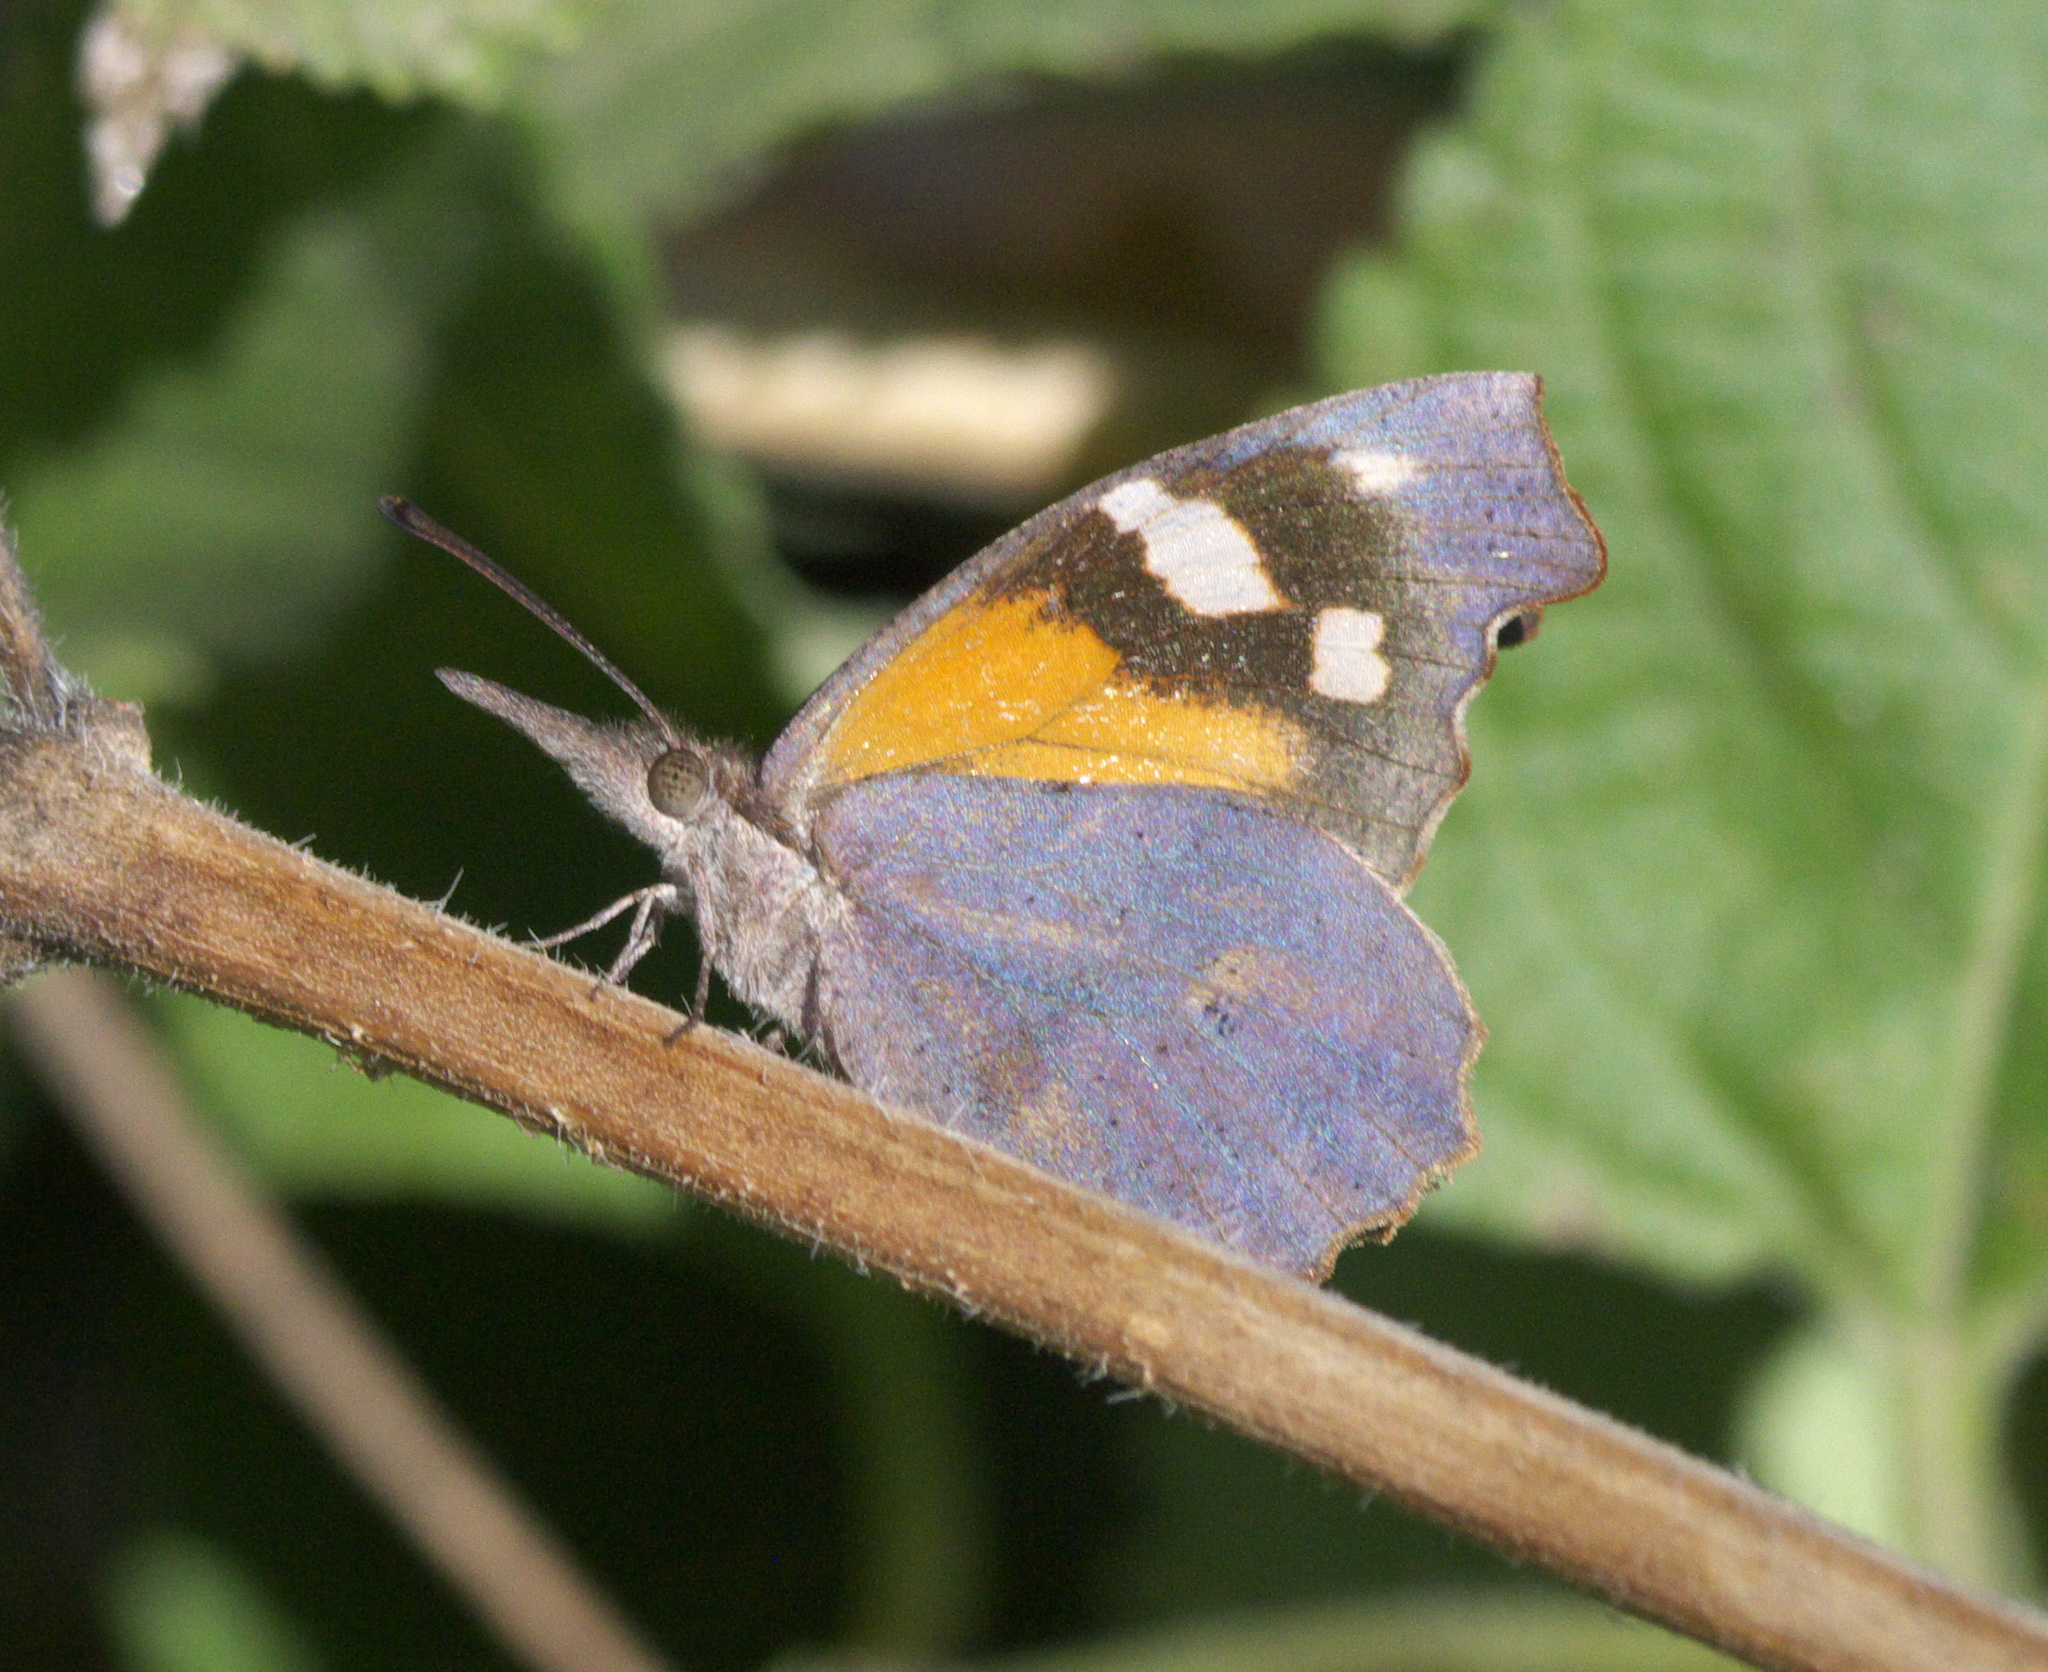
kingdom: Animalia
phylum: Arthropoda
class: Insecta
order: Lepidoptera
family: Nymphalidae
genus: Libytheana
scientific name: Libytheana carinenta
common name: American snout
